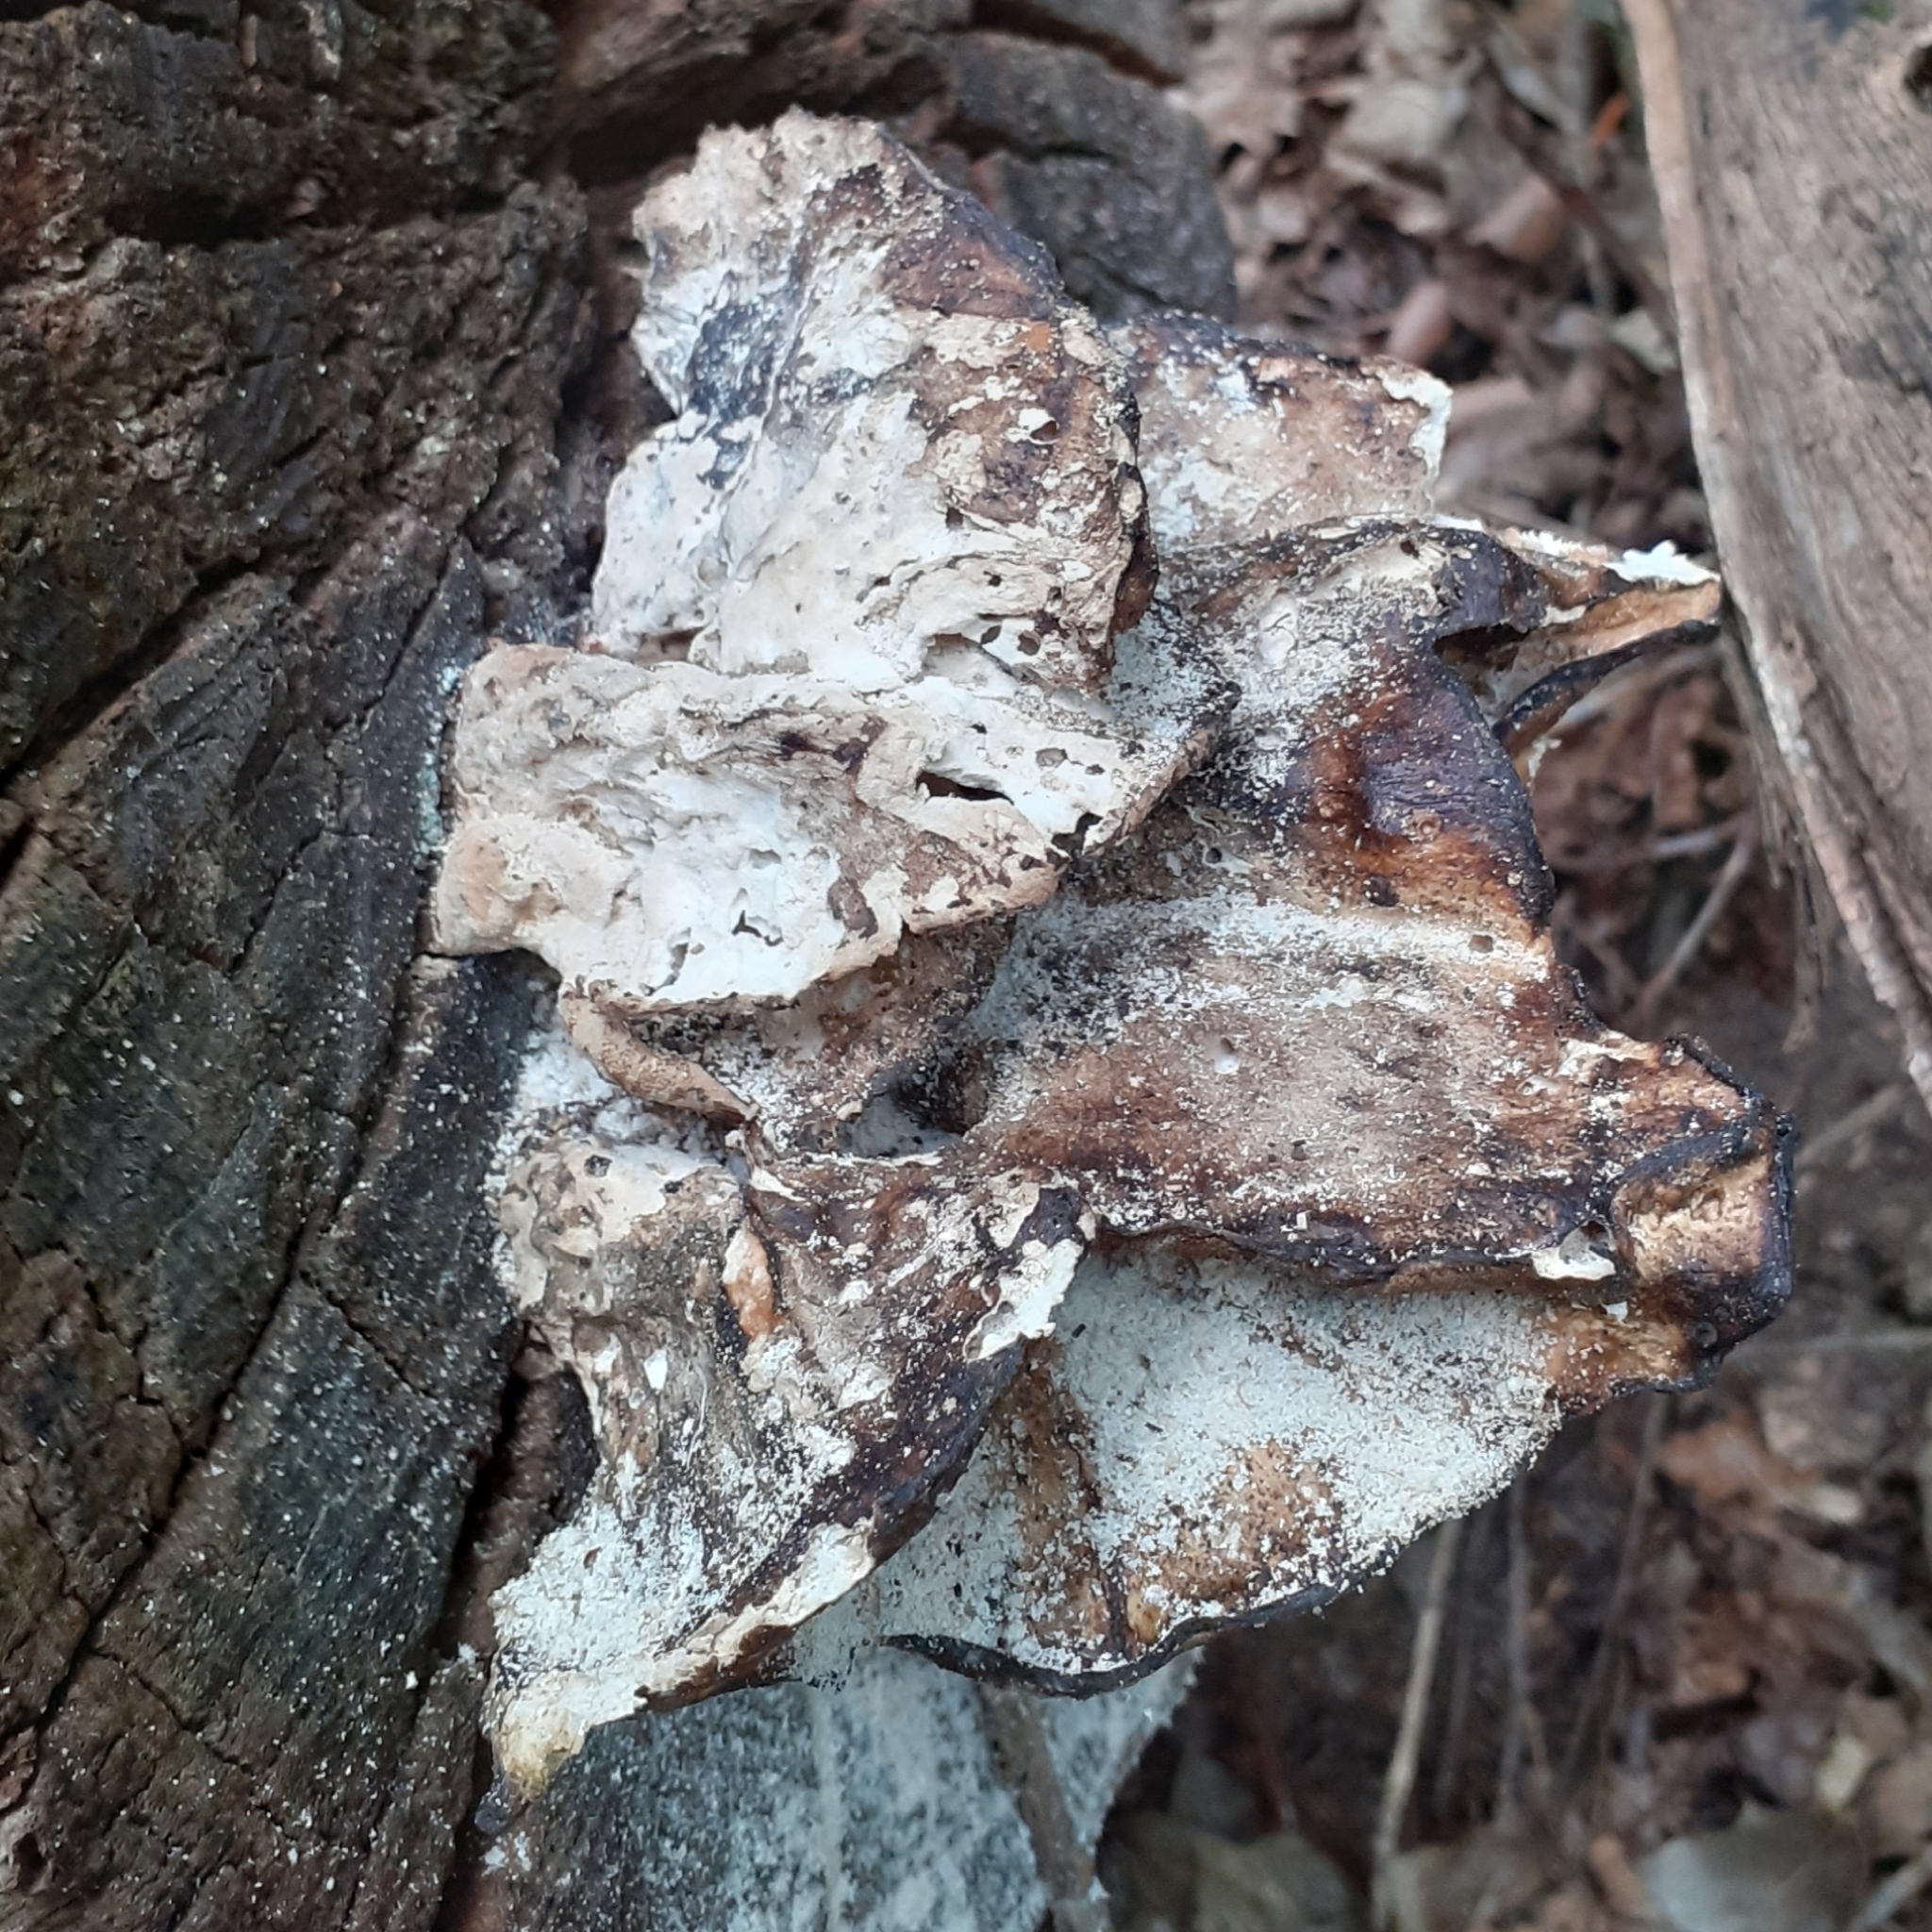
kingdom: Fungi
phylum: Basidiomycota
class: Agaricomycetes
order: Polyporales
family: Laetiporaceae
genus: Laetiporus
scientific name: Laetiporus sulphureus
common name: Chicken of the woods
